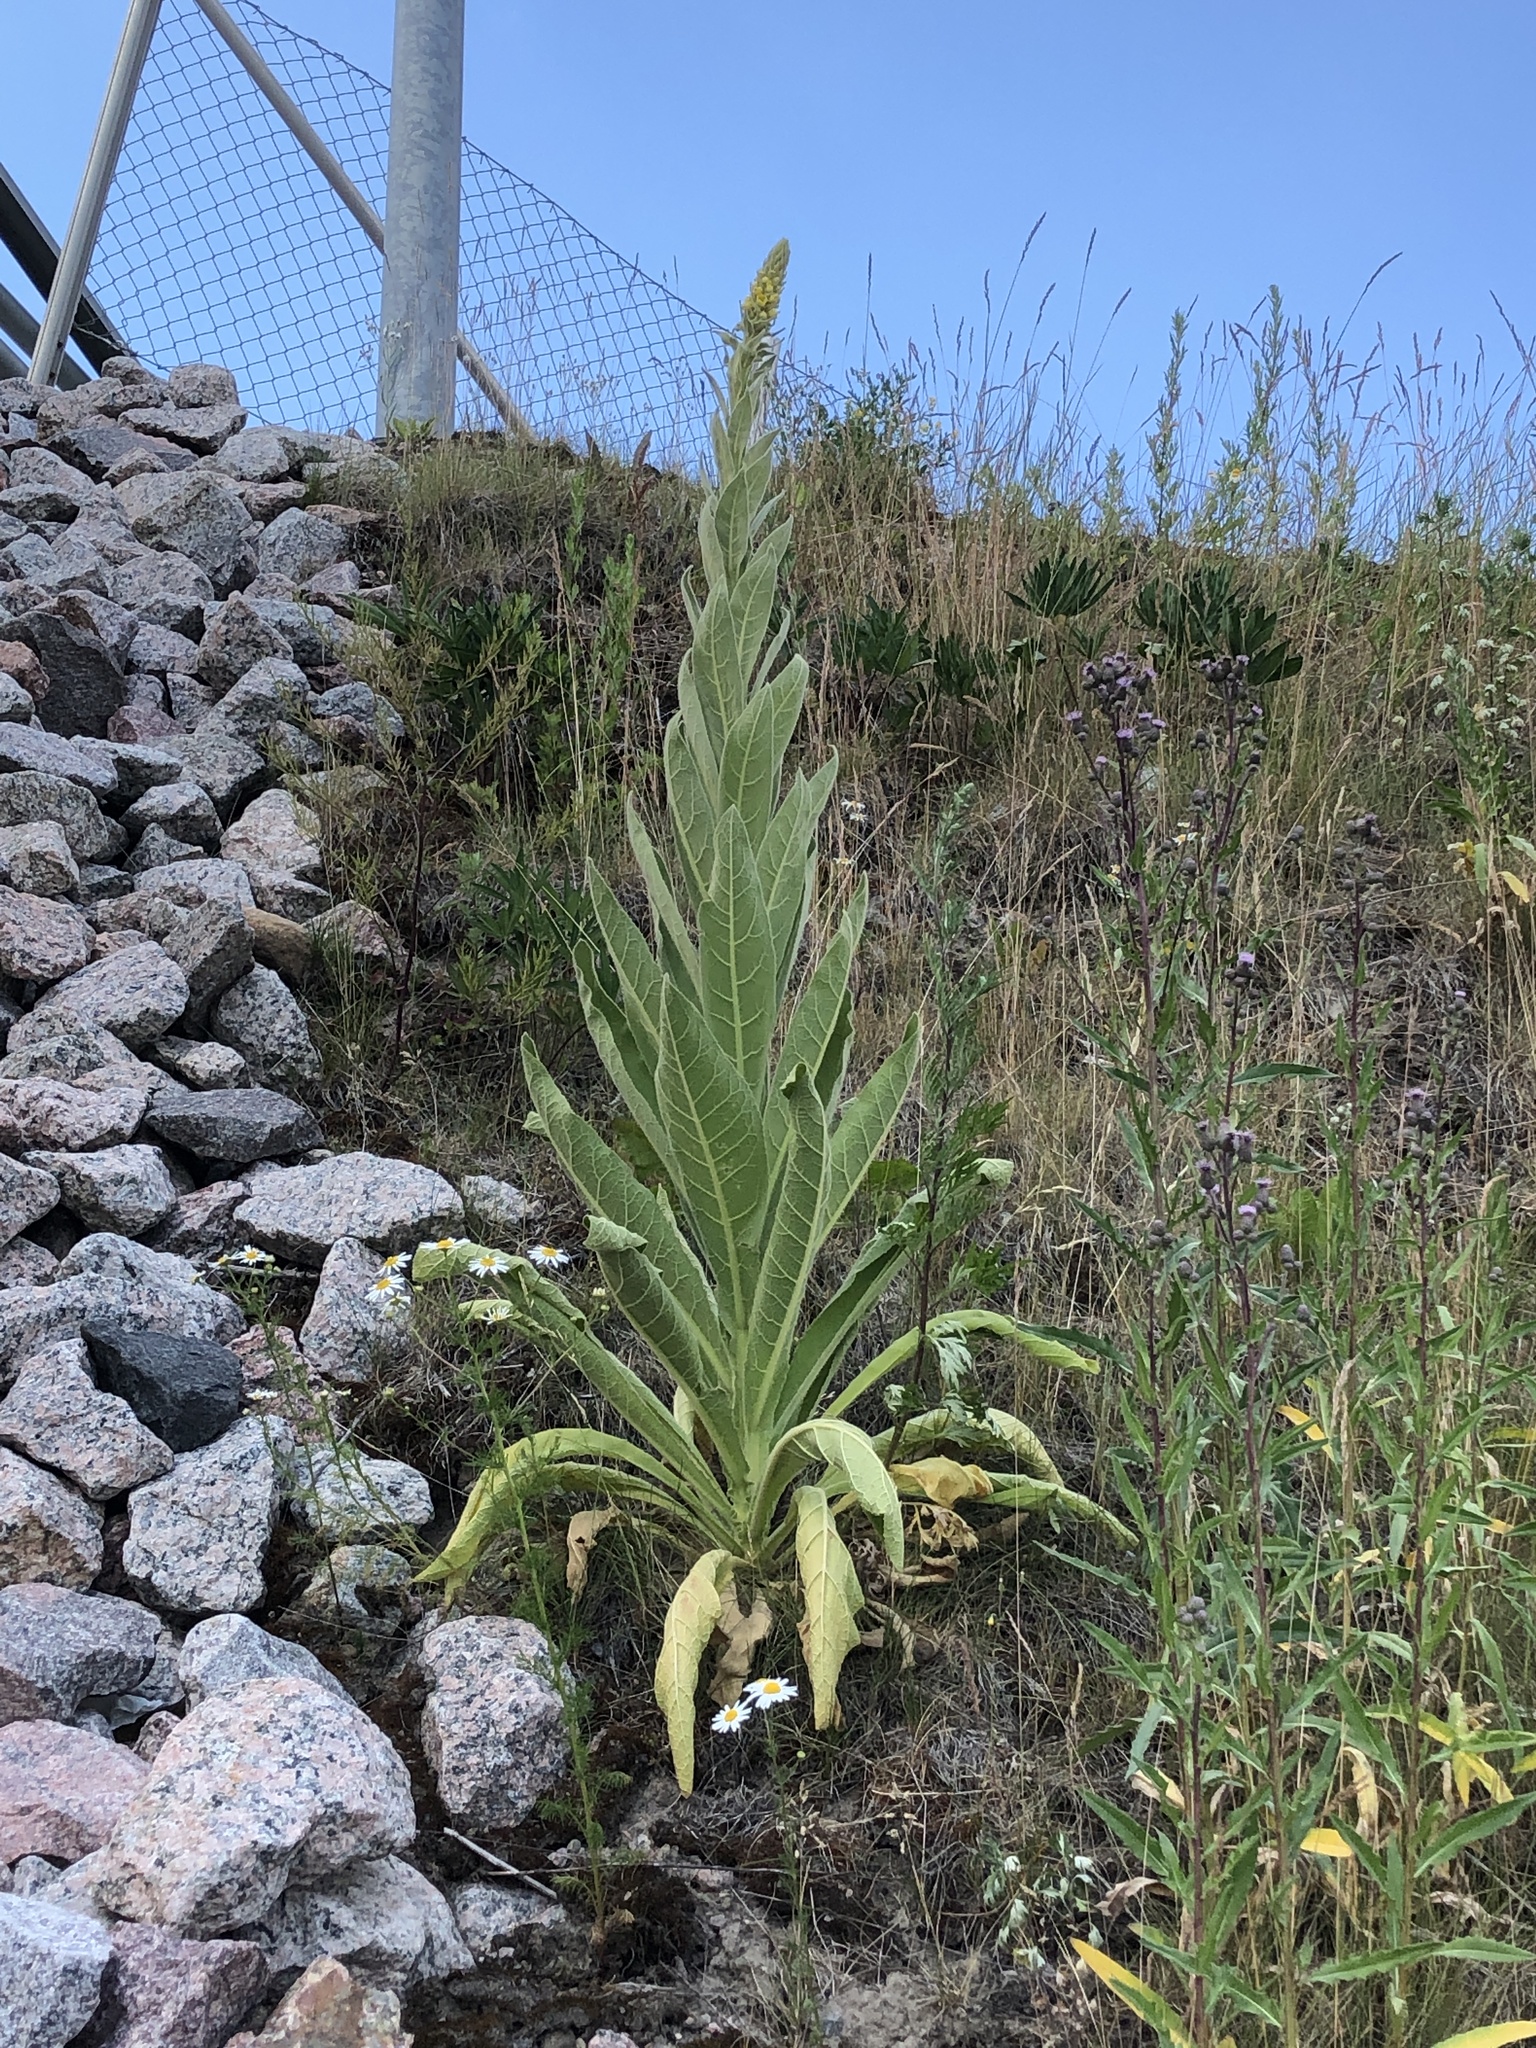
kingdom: Plantae
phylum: Tracheophyta
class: Magnoliopsida
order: Lamiales
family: Scrophulariaceae
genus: Verbascum
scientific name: Verbascum thapsus
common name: Common mullein
